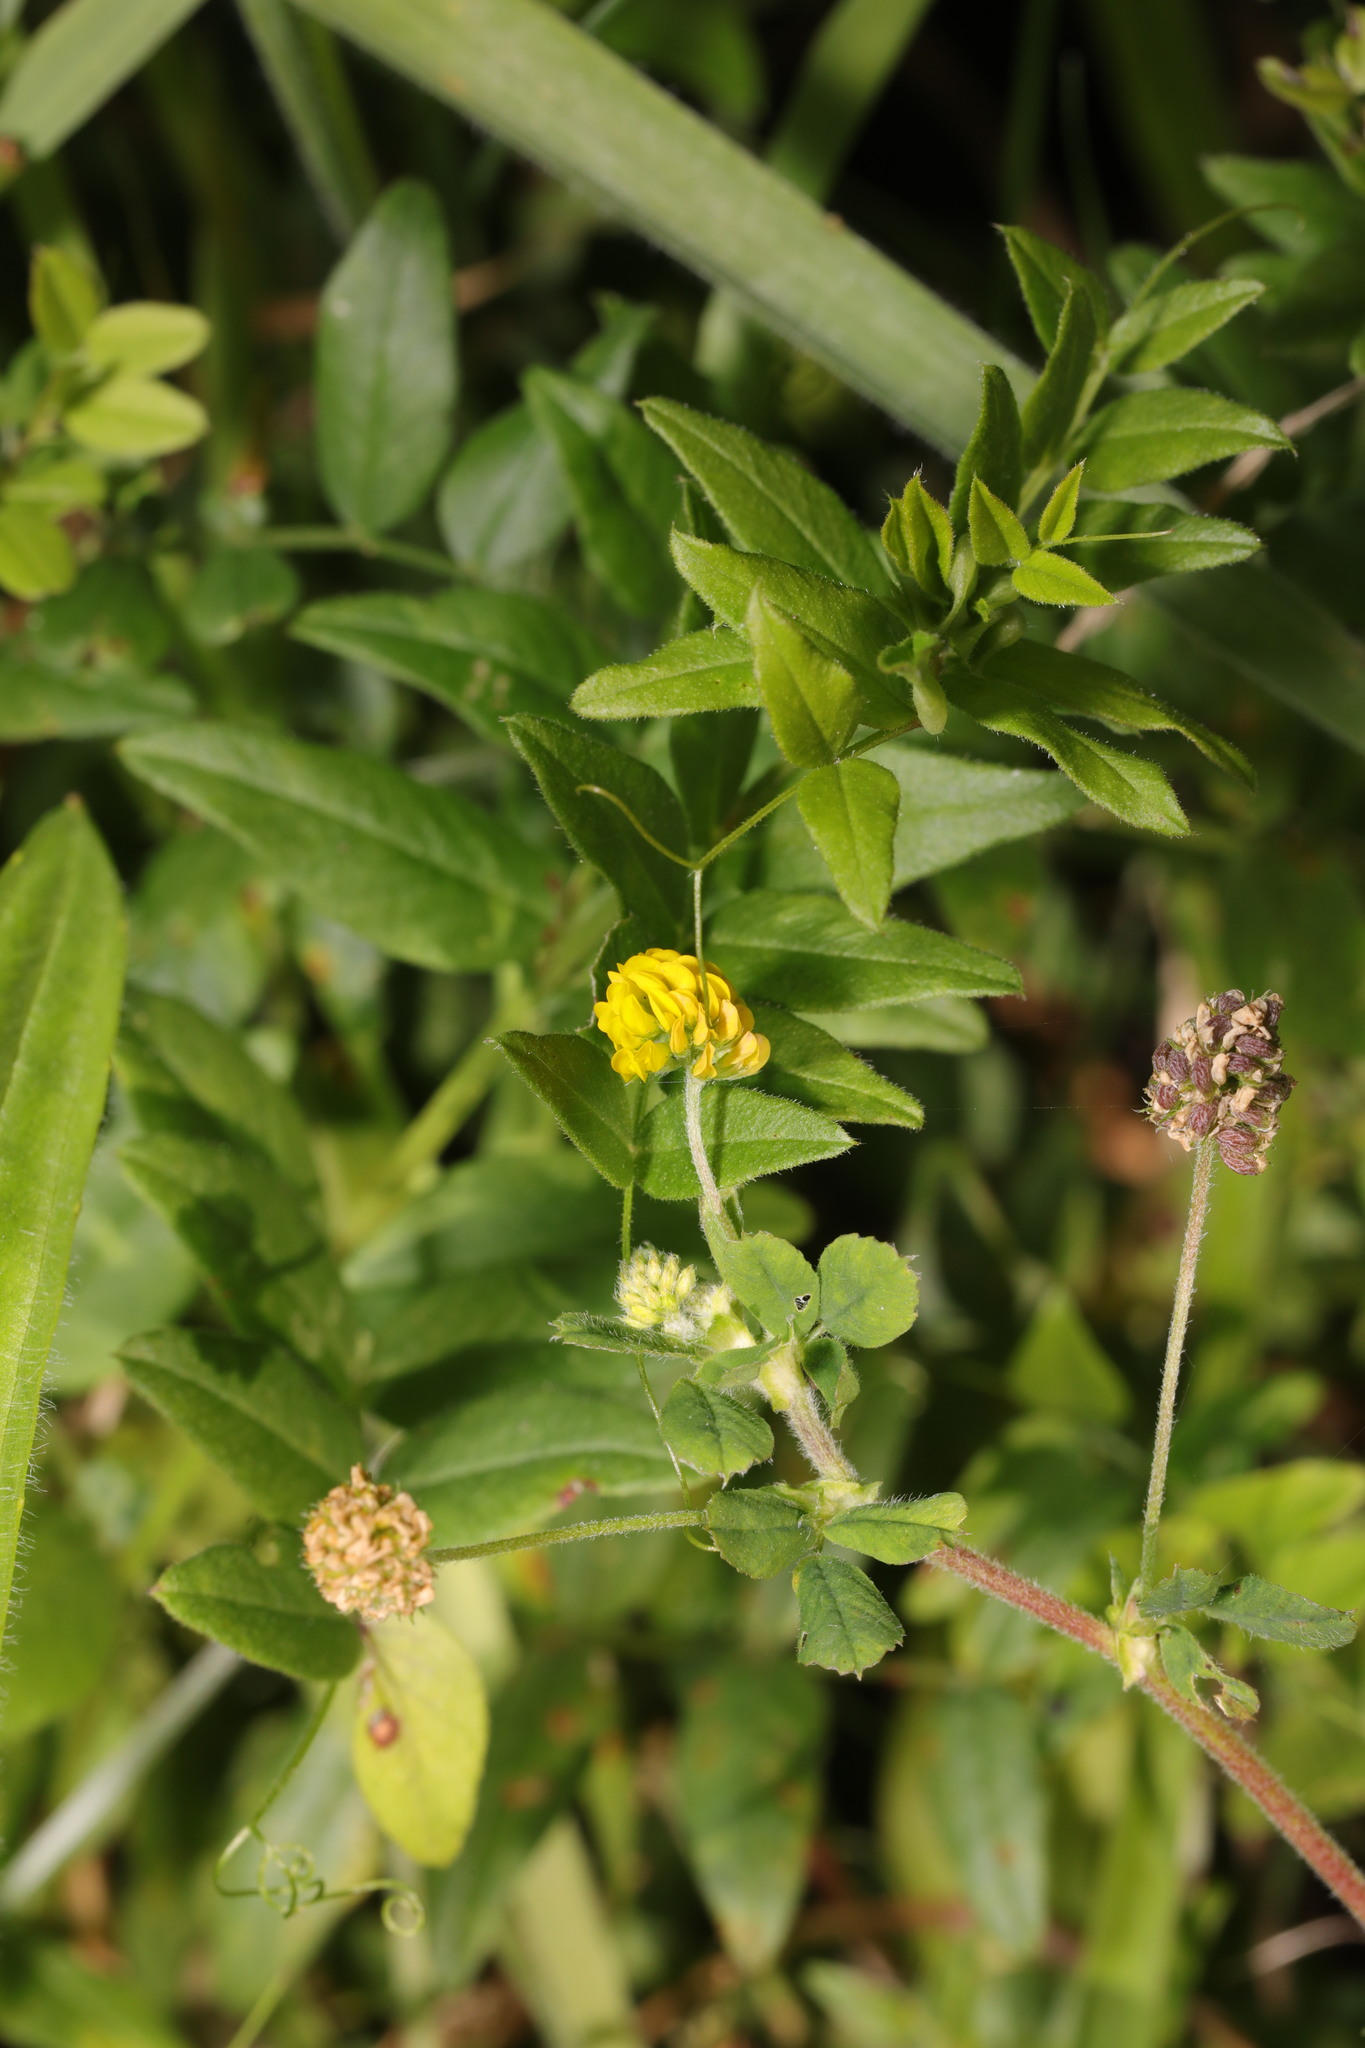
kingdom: Plantae
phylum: Tracheophyta
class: Magnoliopsida
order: Fabales
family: Fabaceae
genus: Medicago
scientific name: Medicago lupulina
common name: Black medick
